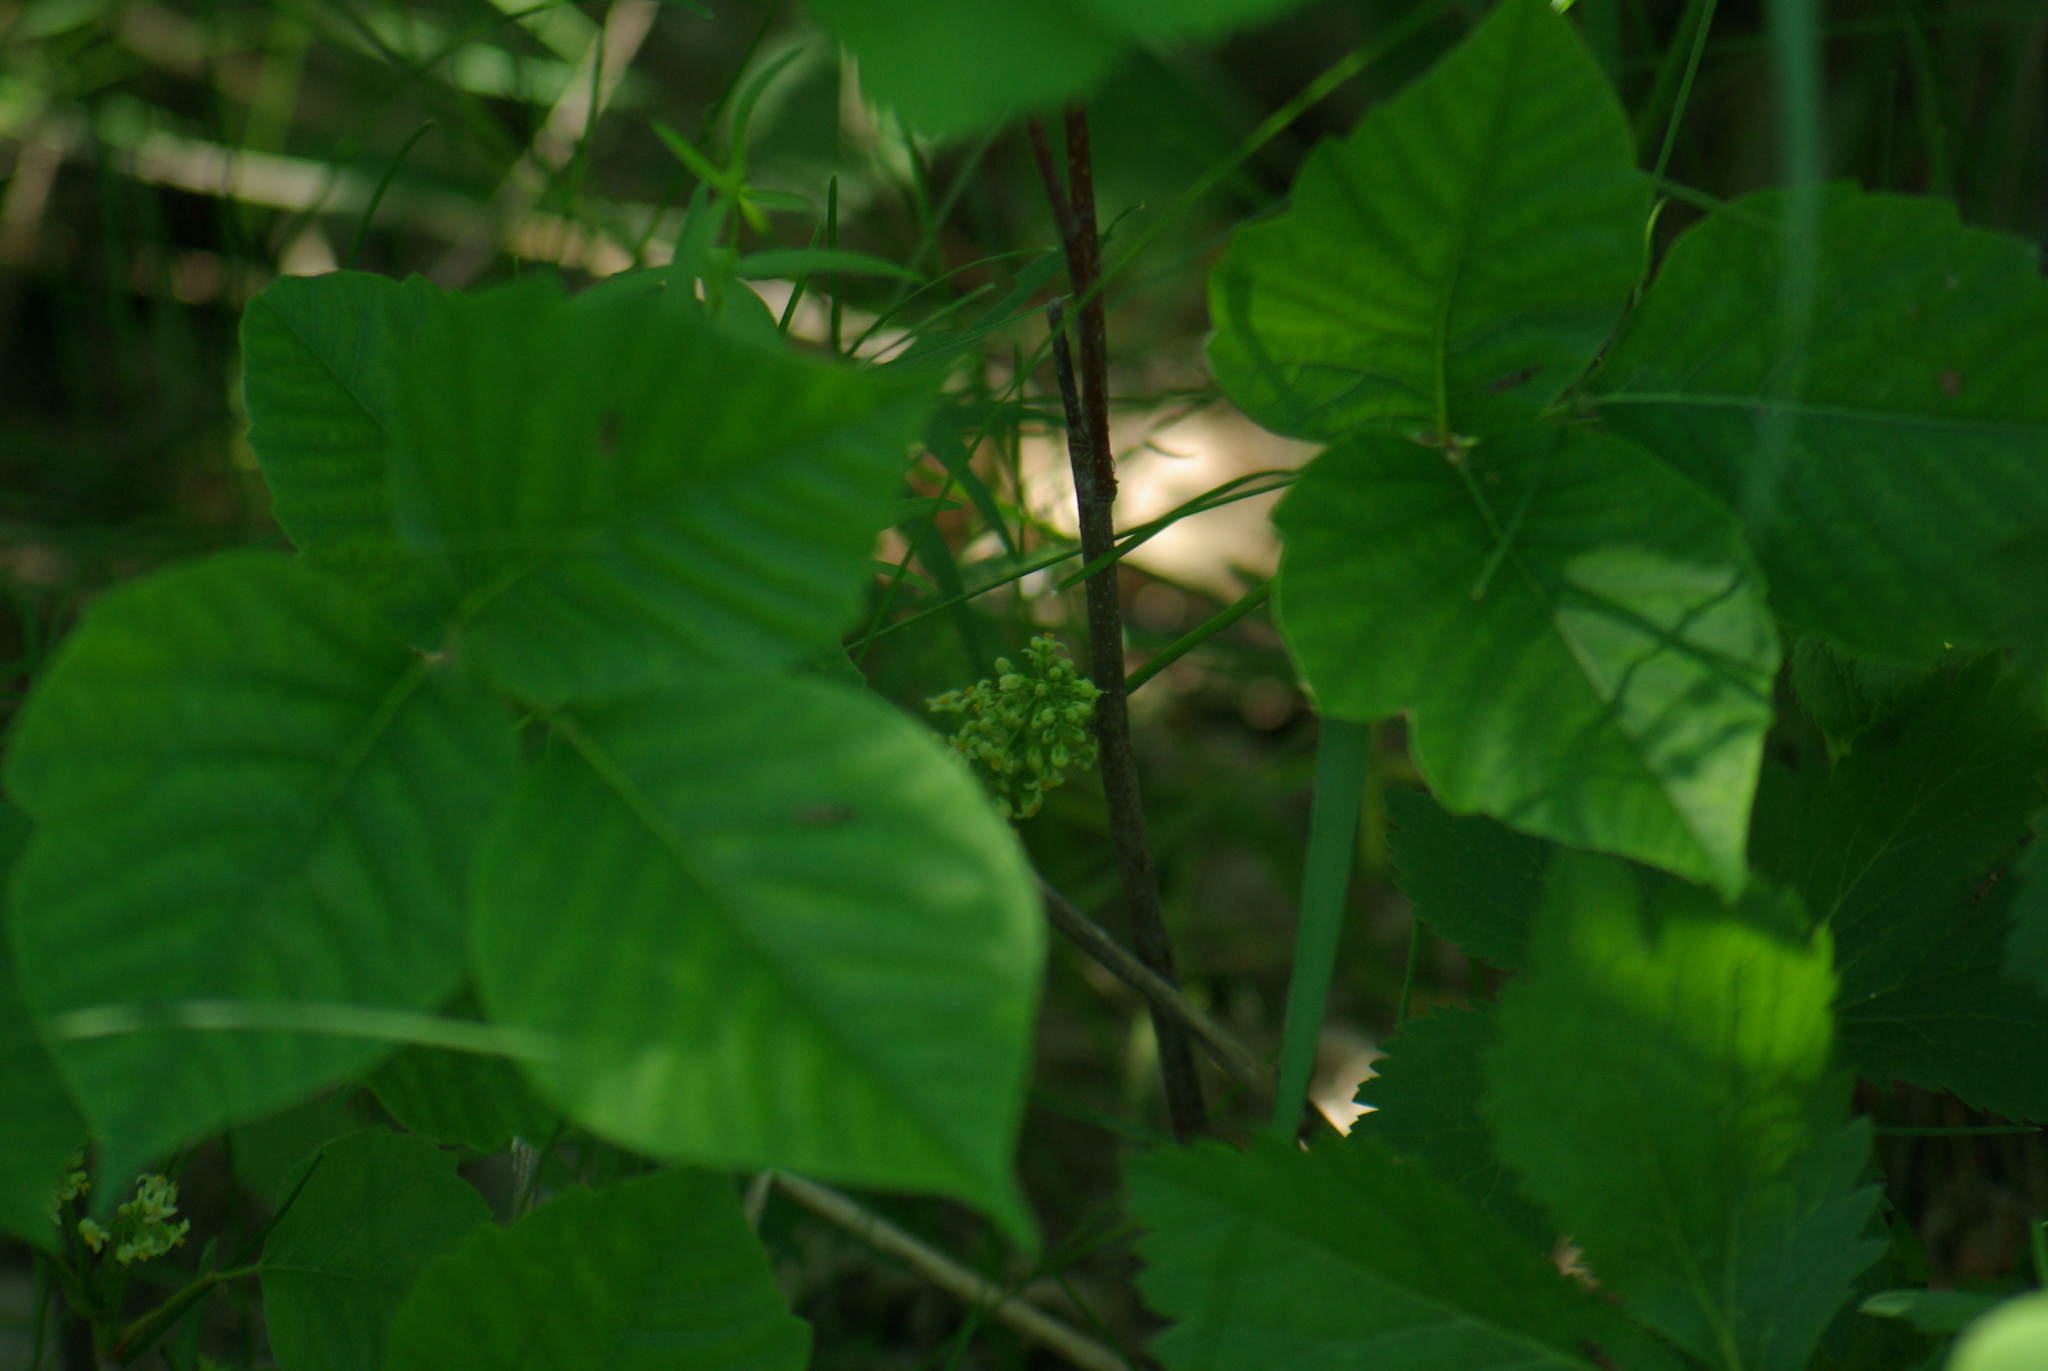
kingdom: Plantae
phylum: Tracheophyta
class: Magnoliopsida
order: Sapindales
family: Anacardiaceae
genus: Toxicodendron
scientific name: Toxicodendron rydbergii
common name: Rydberg's poison-ivy
